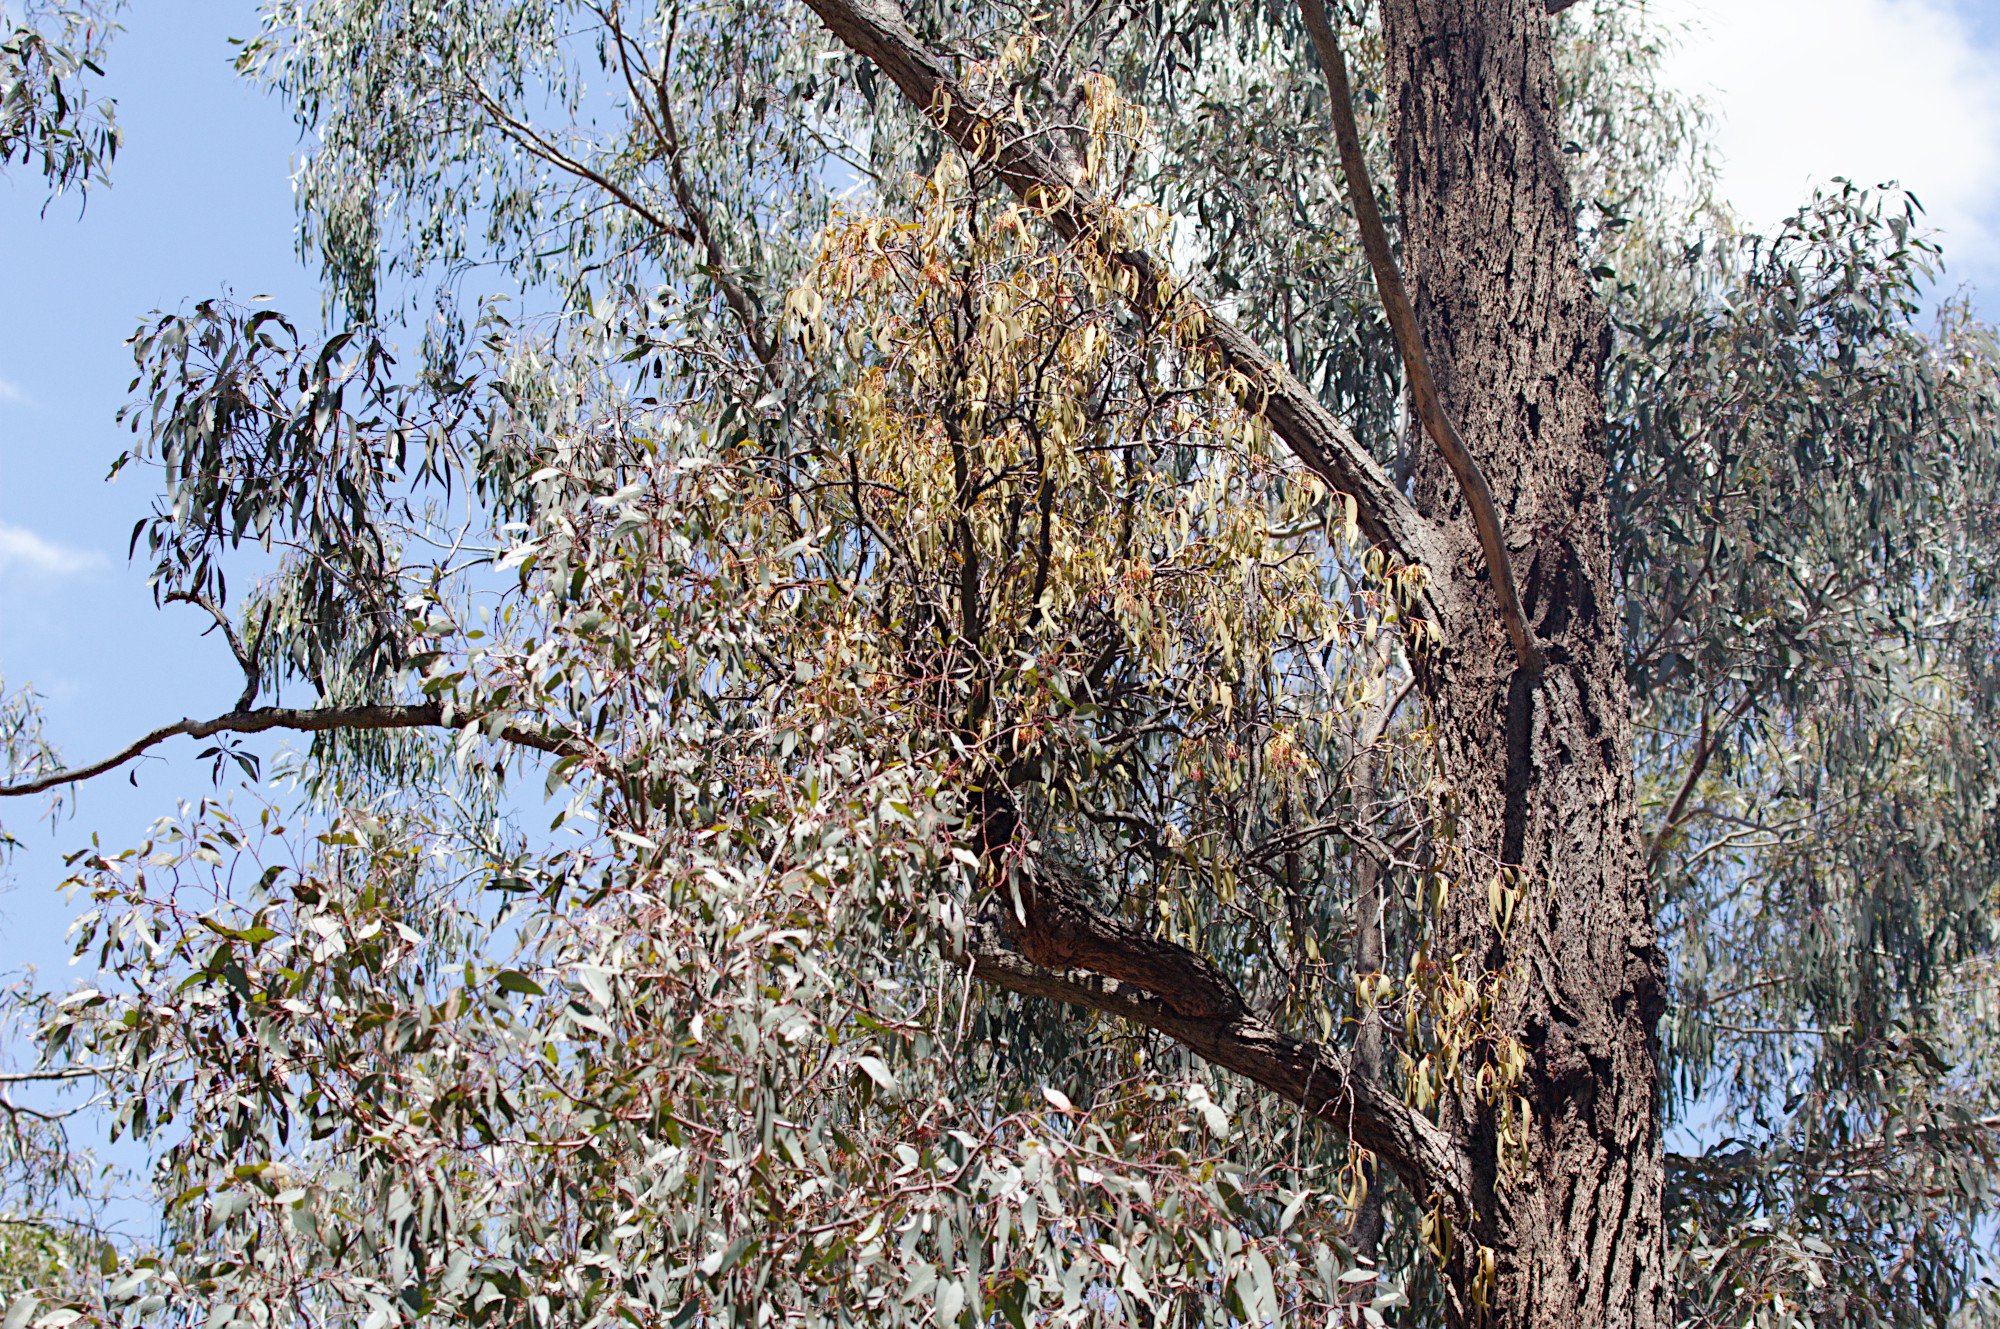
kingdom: Plantae
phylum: Tracheophyta
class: Magnoliopsida
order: Santalales
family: Loranthaceae
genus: Amyema
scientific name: Amyema miquelii
